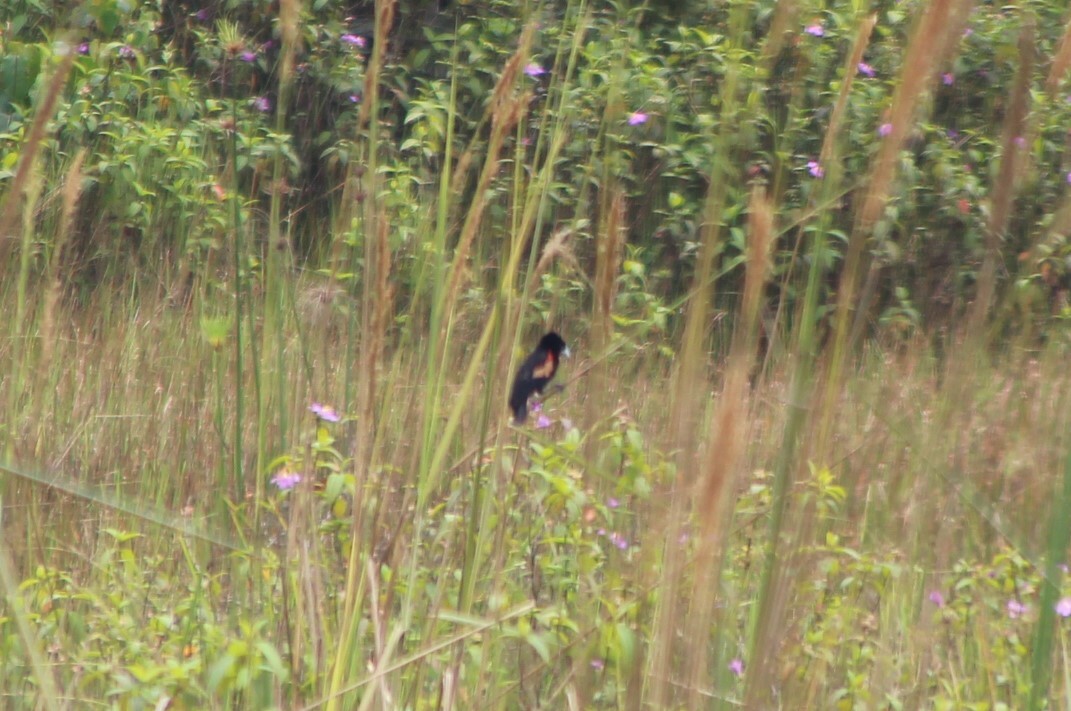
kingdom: Animalia
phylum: Chordata
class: Aves
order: Passeriformes
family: Ploceidae
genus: Euplectes
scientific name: Euplectes axillaris
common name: Fan-tailed widowbird
